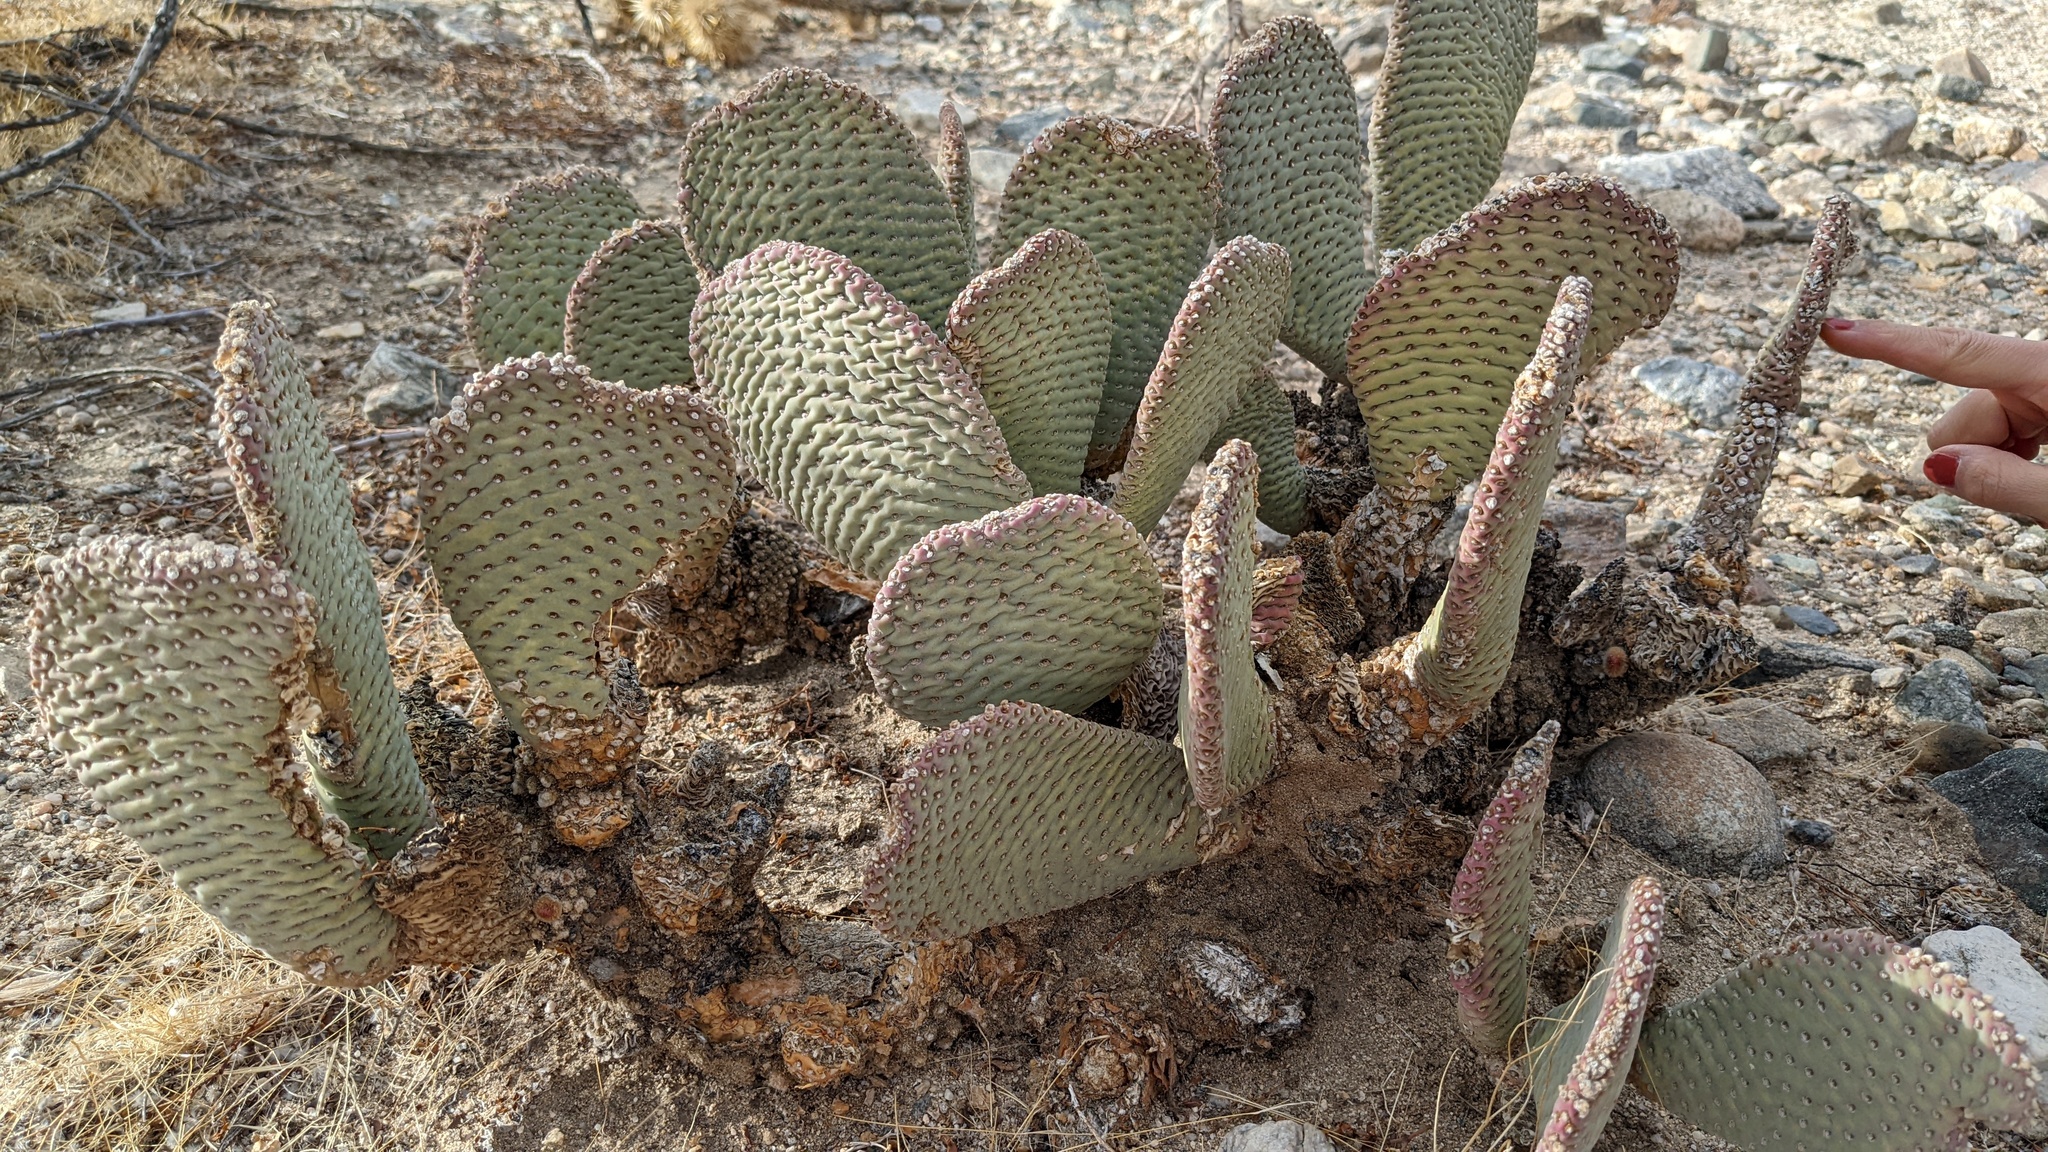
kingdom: Plantae
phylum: Tracheophyta
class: Magnoliopsida
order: Caryophyllales
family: Cactaceae
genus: Opuntia
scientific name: Opuntia basilaris
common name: Beavertail prickly-pear
